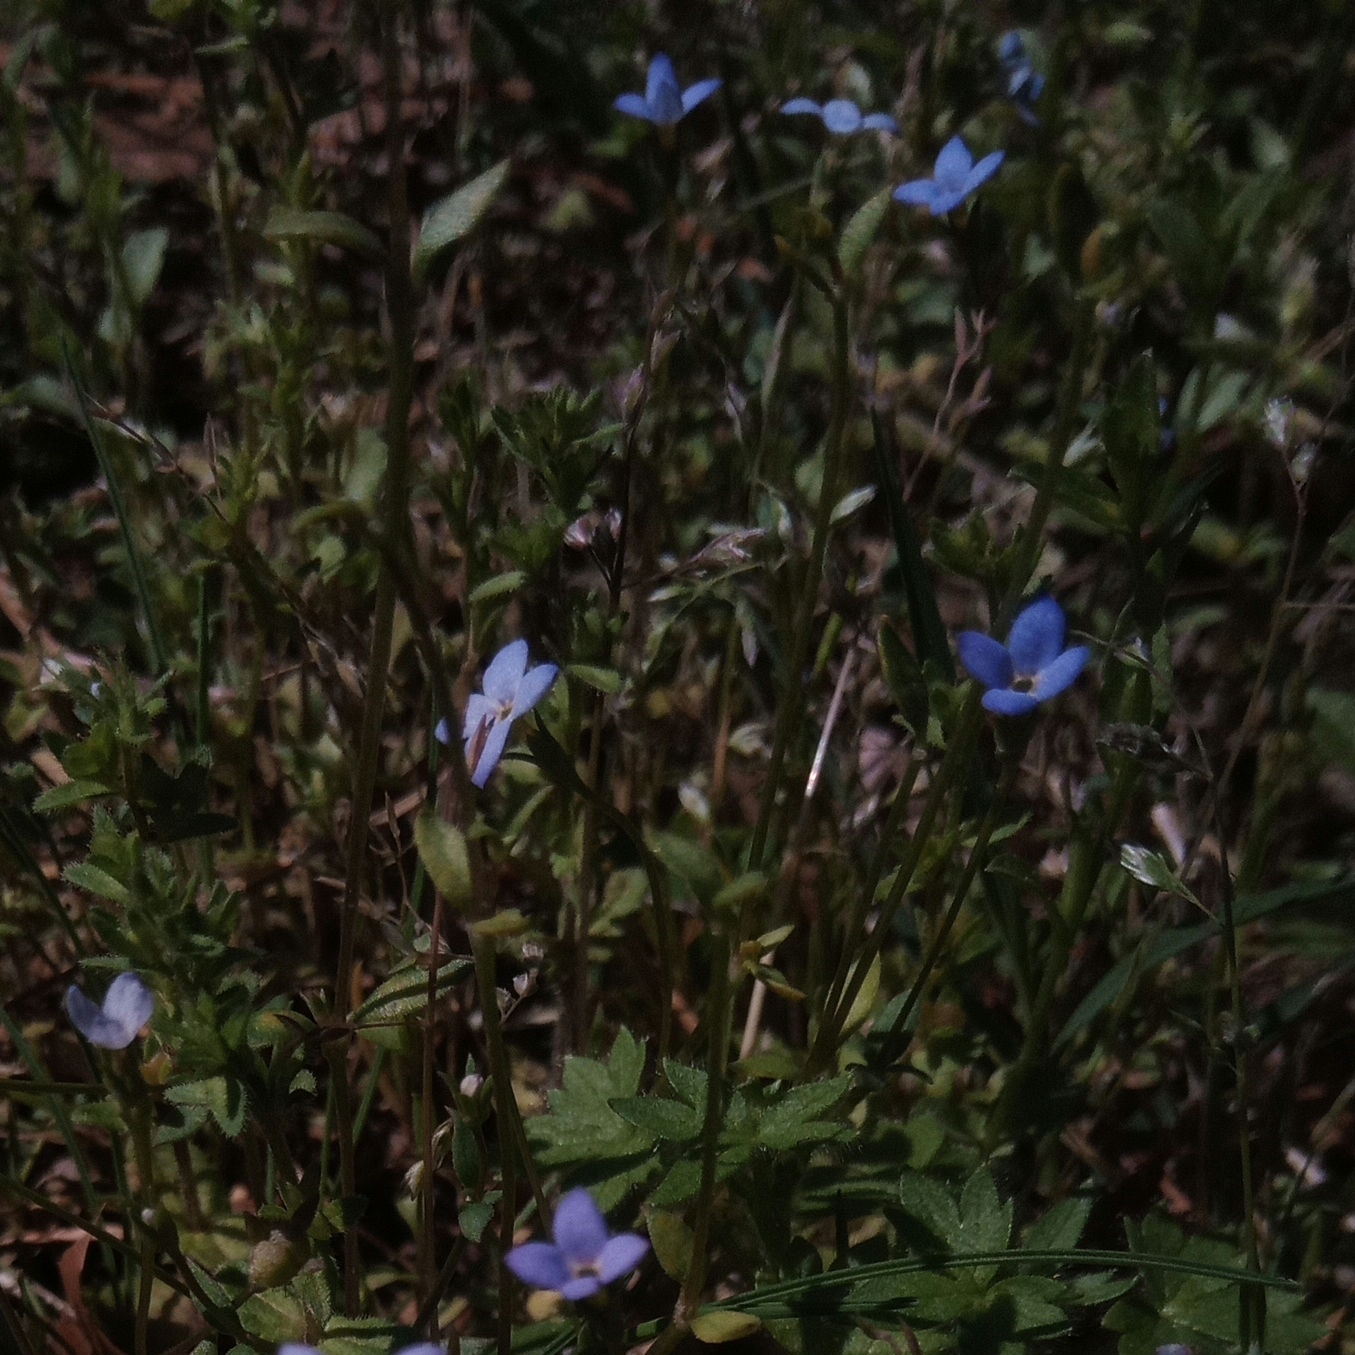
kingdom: Plantae
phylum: Tracheophyta
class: Magnoliopsida
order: Gentianales
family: Rubiaceae
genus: Houstonia
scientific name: Houstonia pusilla
